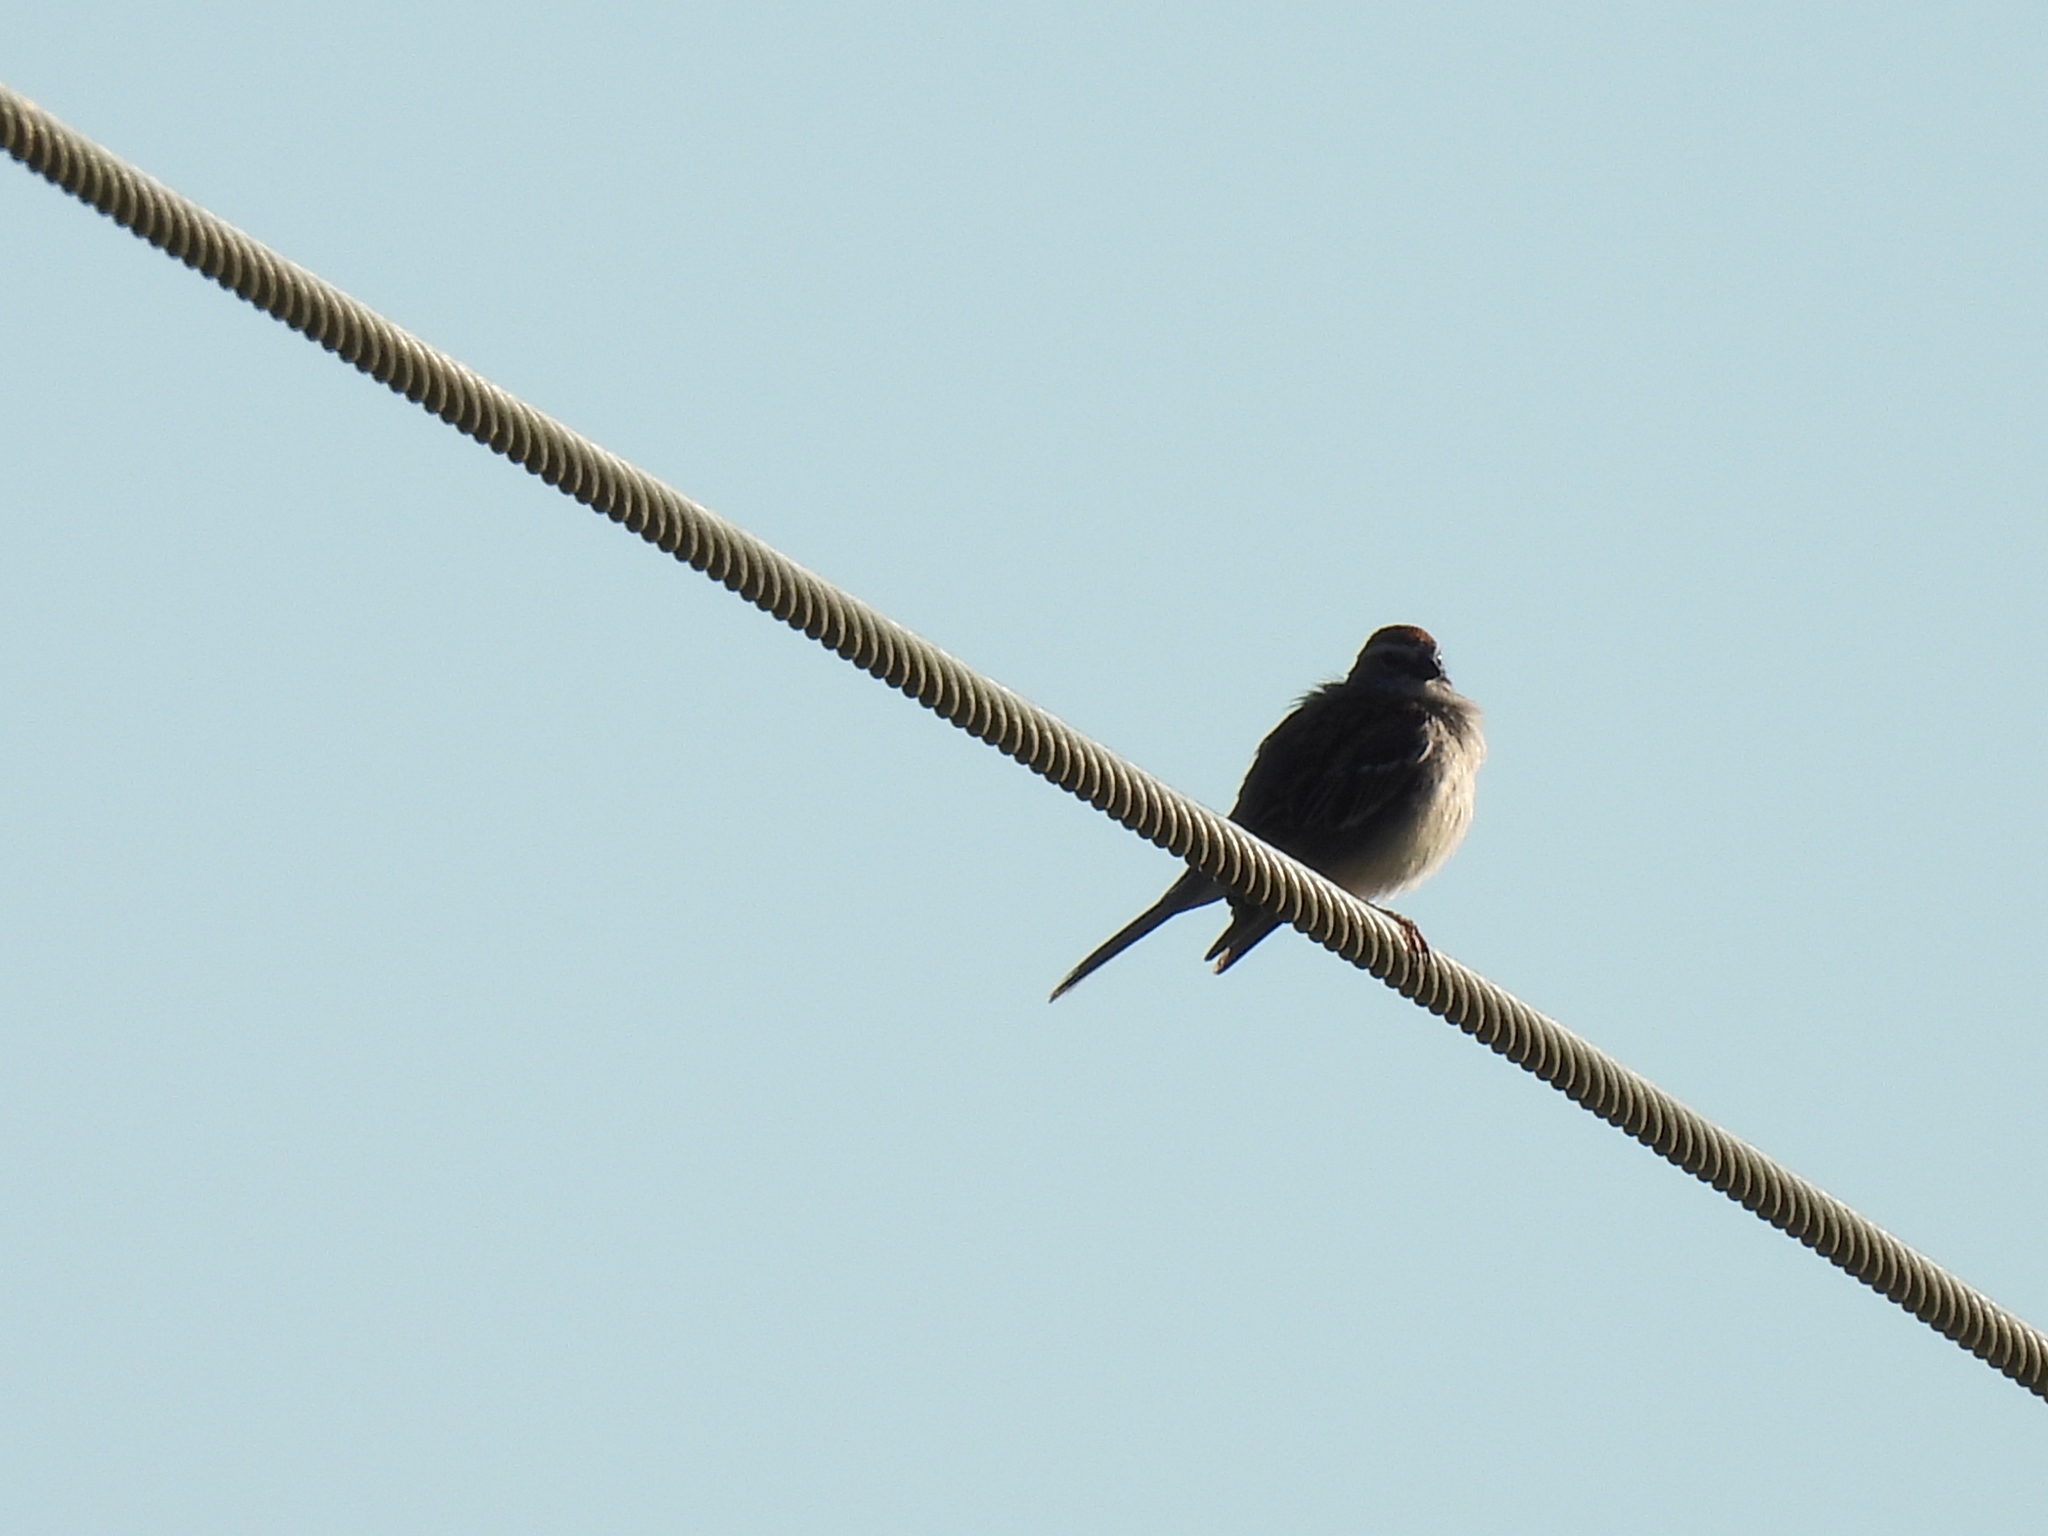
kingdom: Animalia
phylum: Chordata
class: Aves
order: Passeriformes
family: Passerellidae
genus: Spizella
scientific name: Spizella passerina
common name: Chipping sparrow
